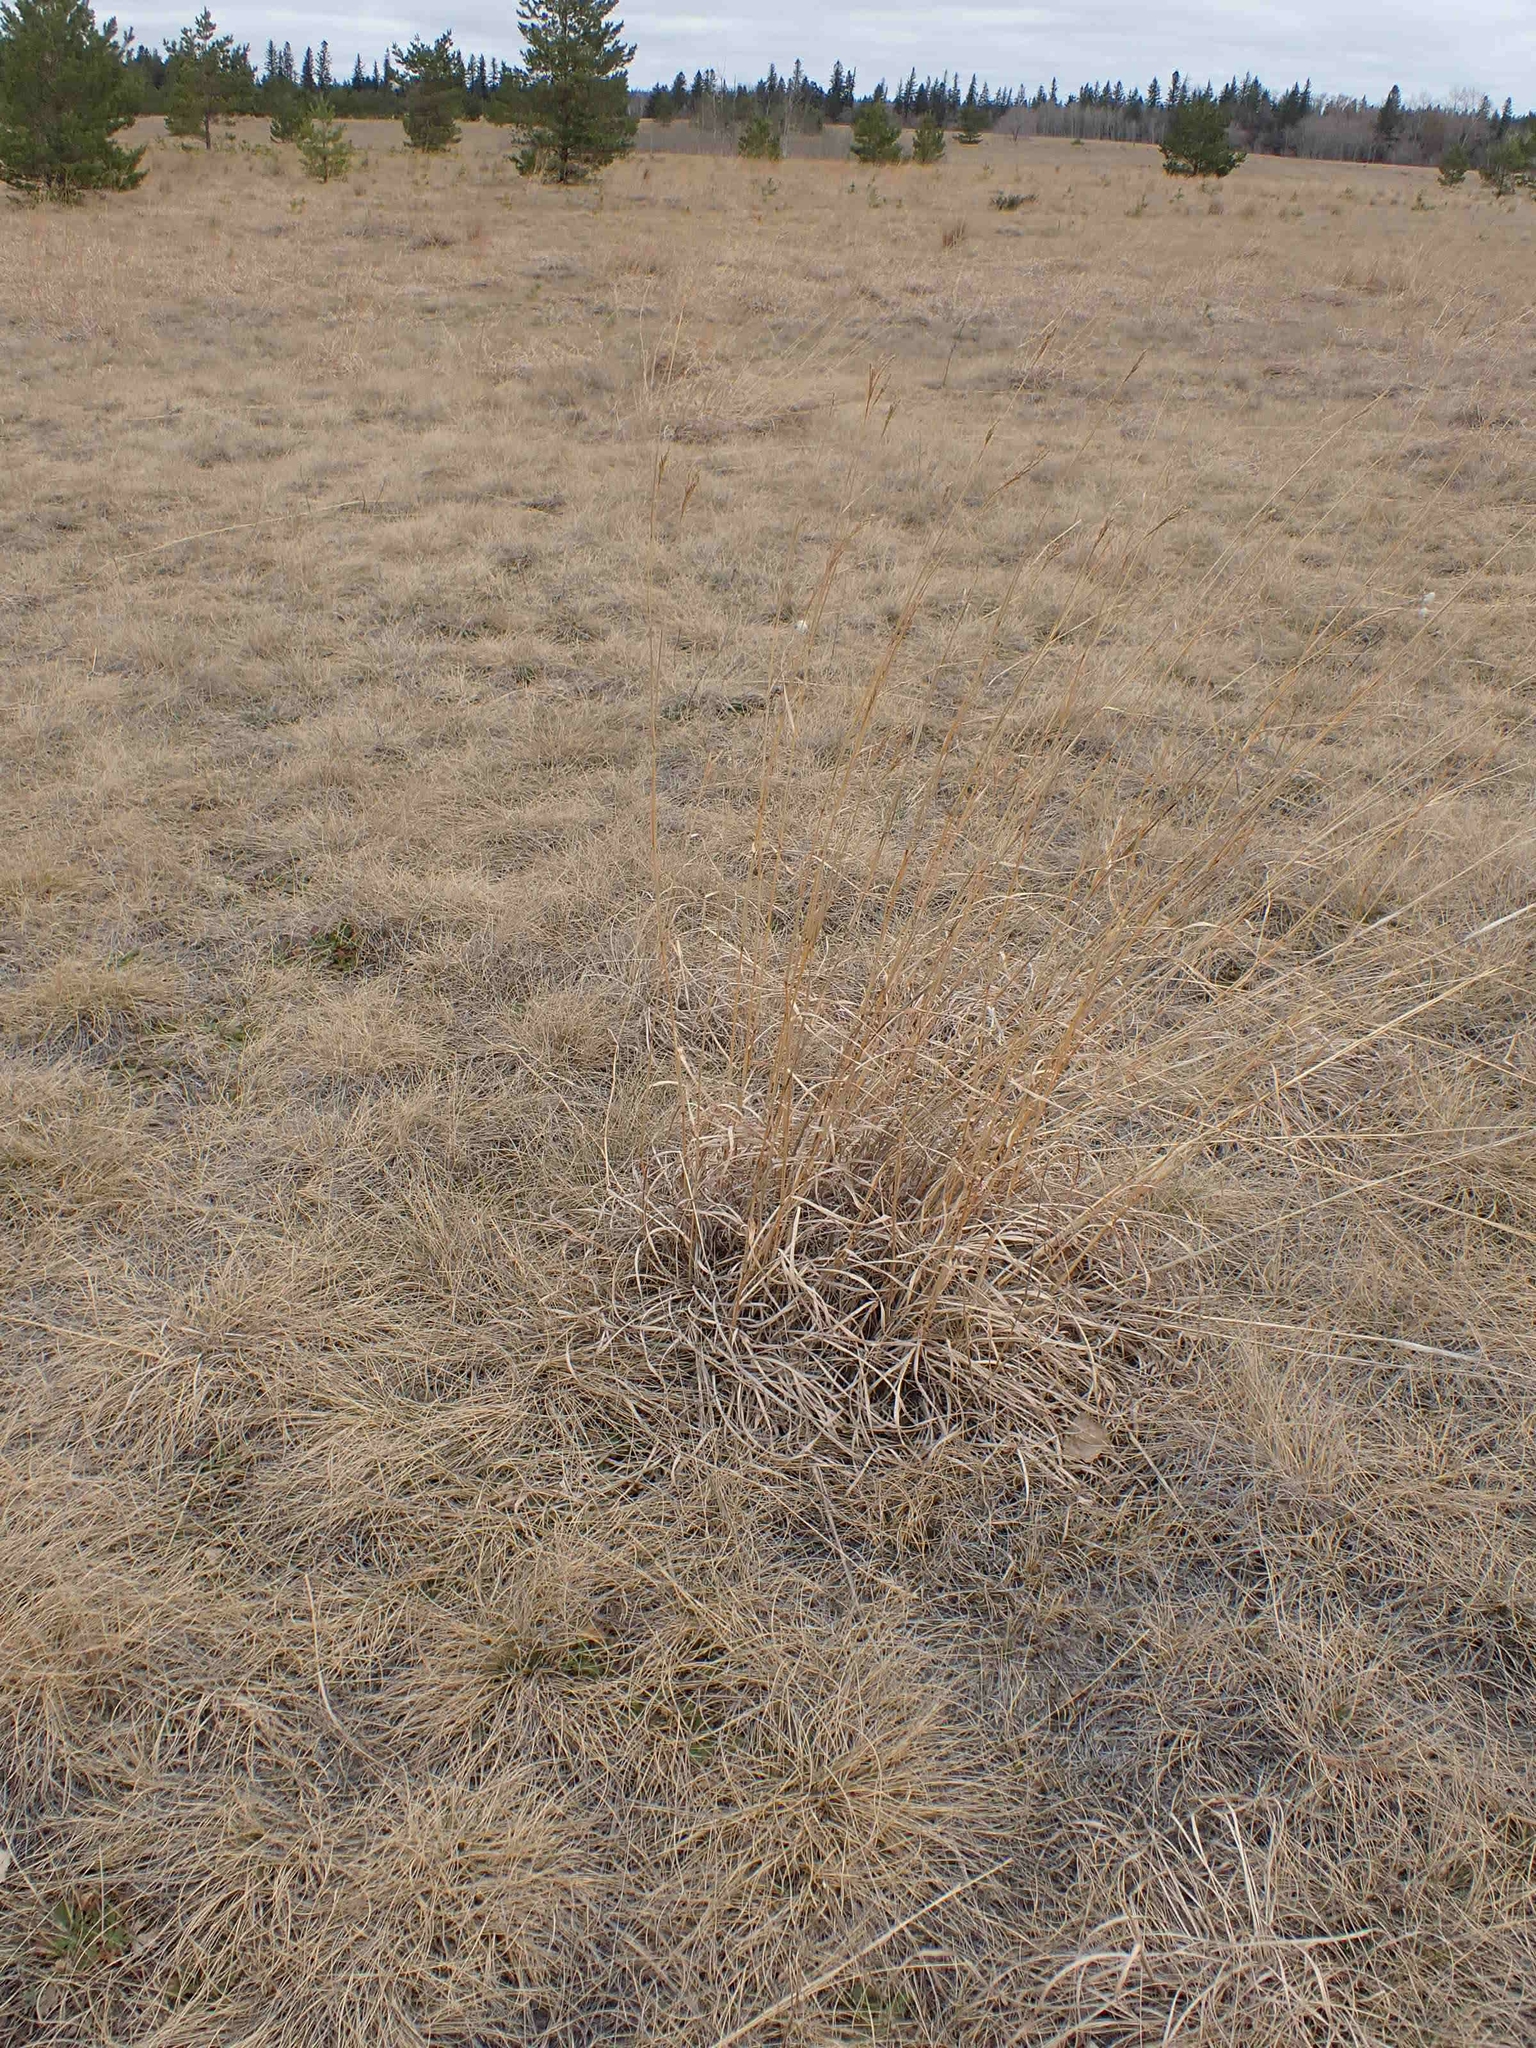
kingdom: Plantae
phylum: Tracheophyta
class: Liliopsida
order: Poales
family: Poaceae
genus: Andropogon
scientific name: Andropogon gerardi
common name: Big bluestem
